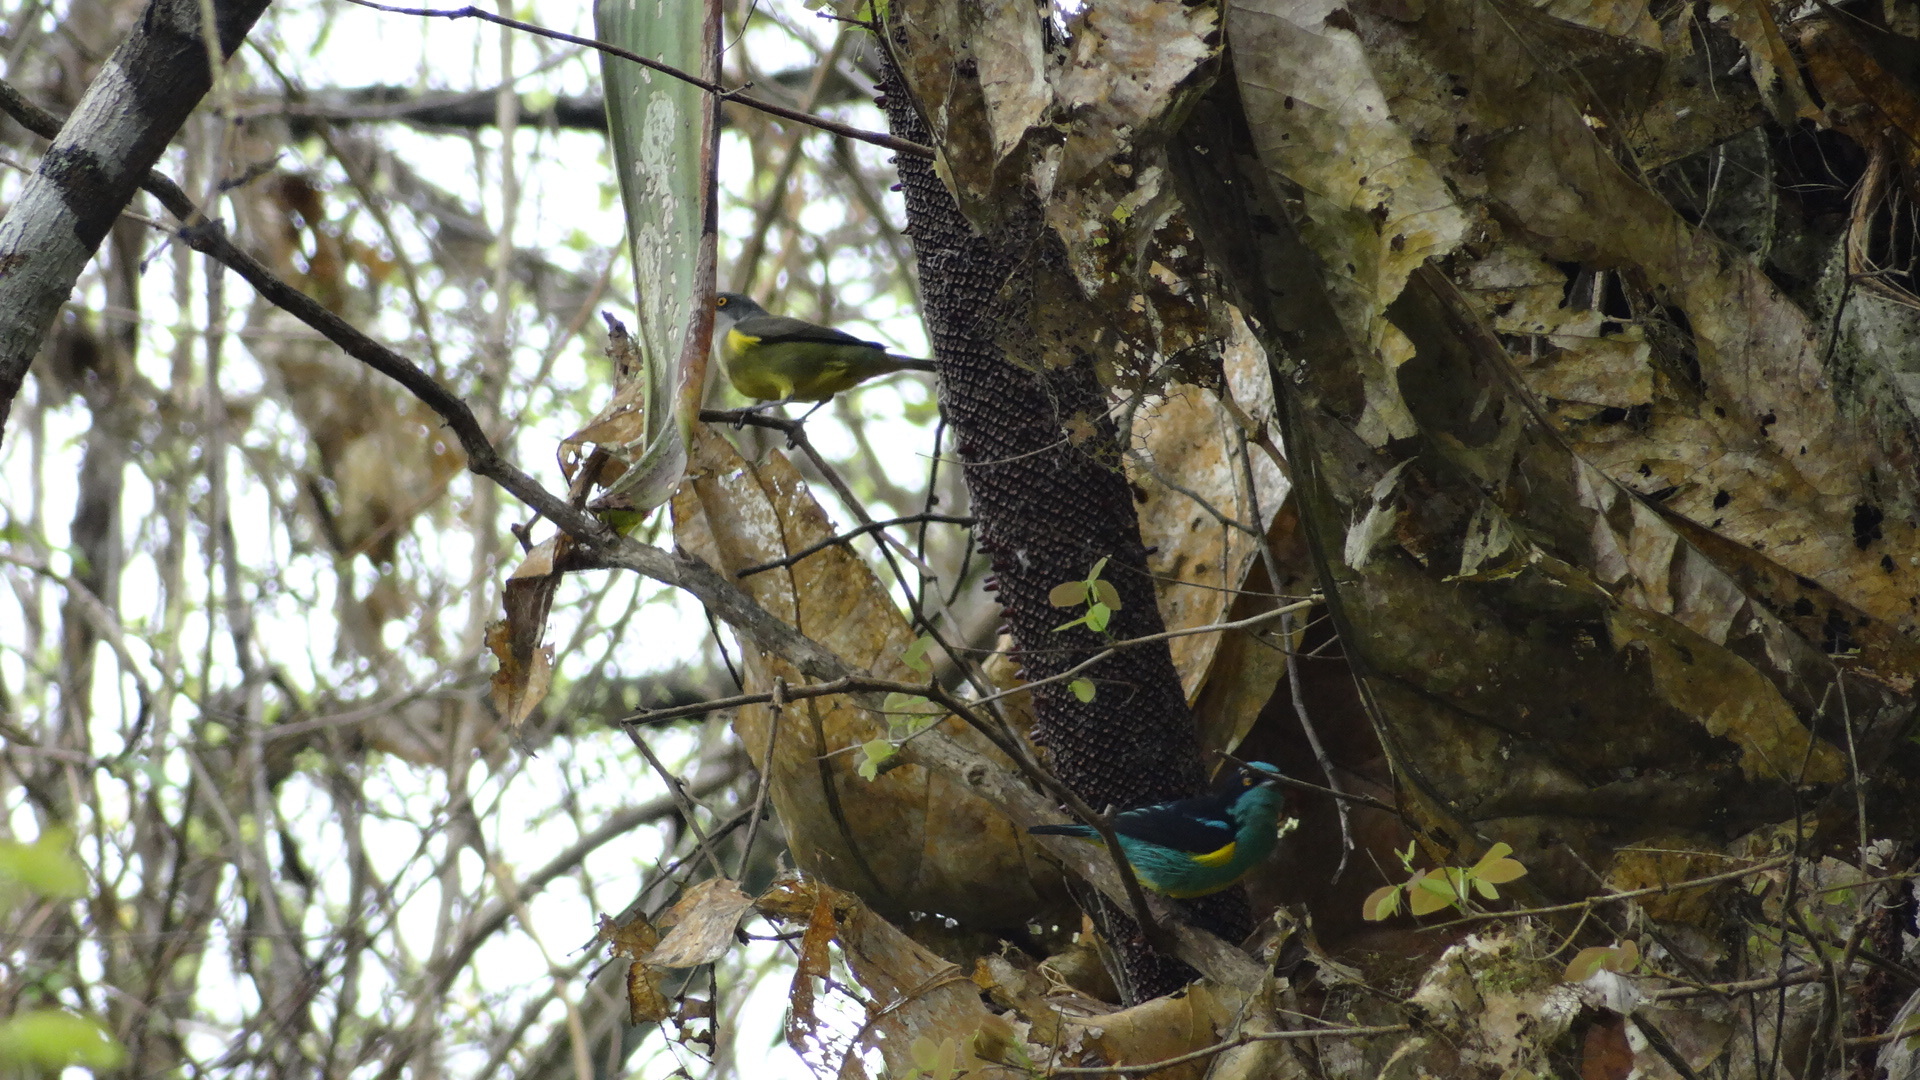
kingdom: Animalia
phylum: Chordata
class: Aves
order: Passeriformes
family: Thraupidae
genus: Dacnis
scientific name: Dacnis egregia
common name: Yellow-tufted dacnis
